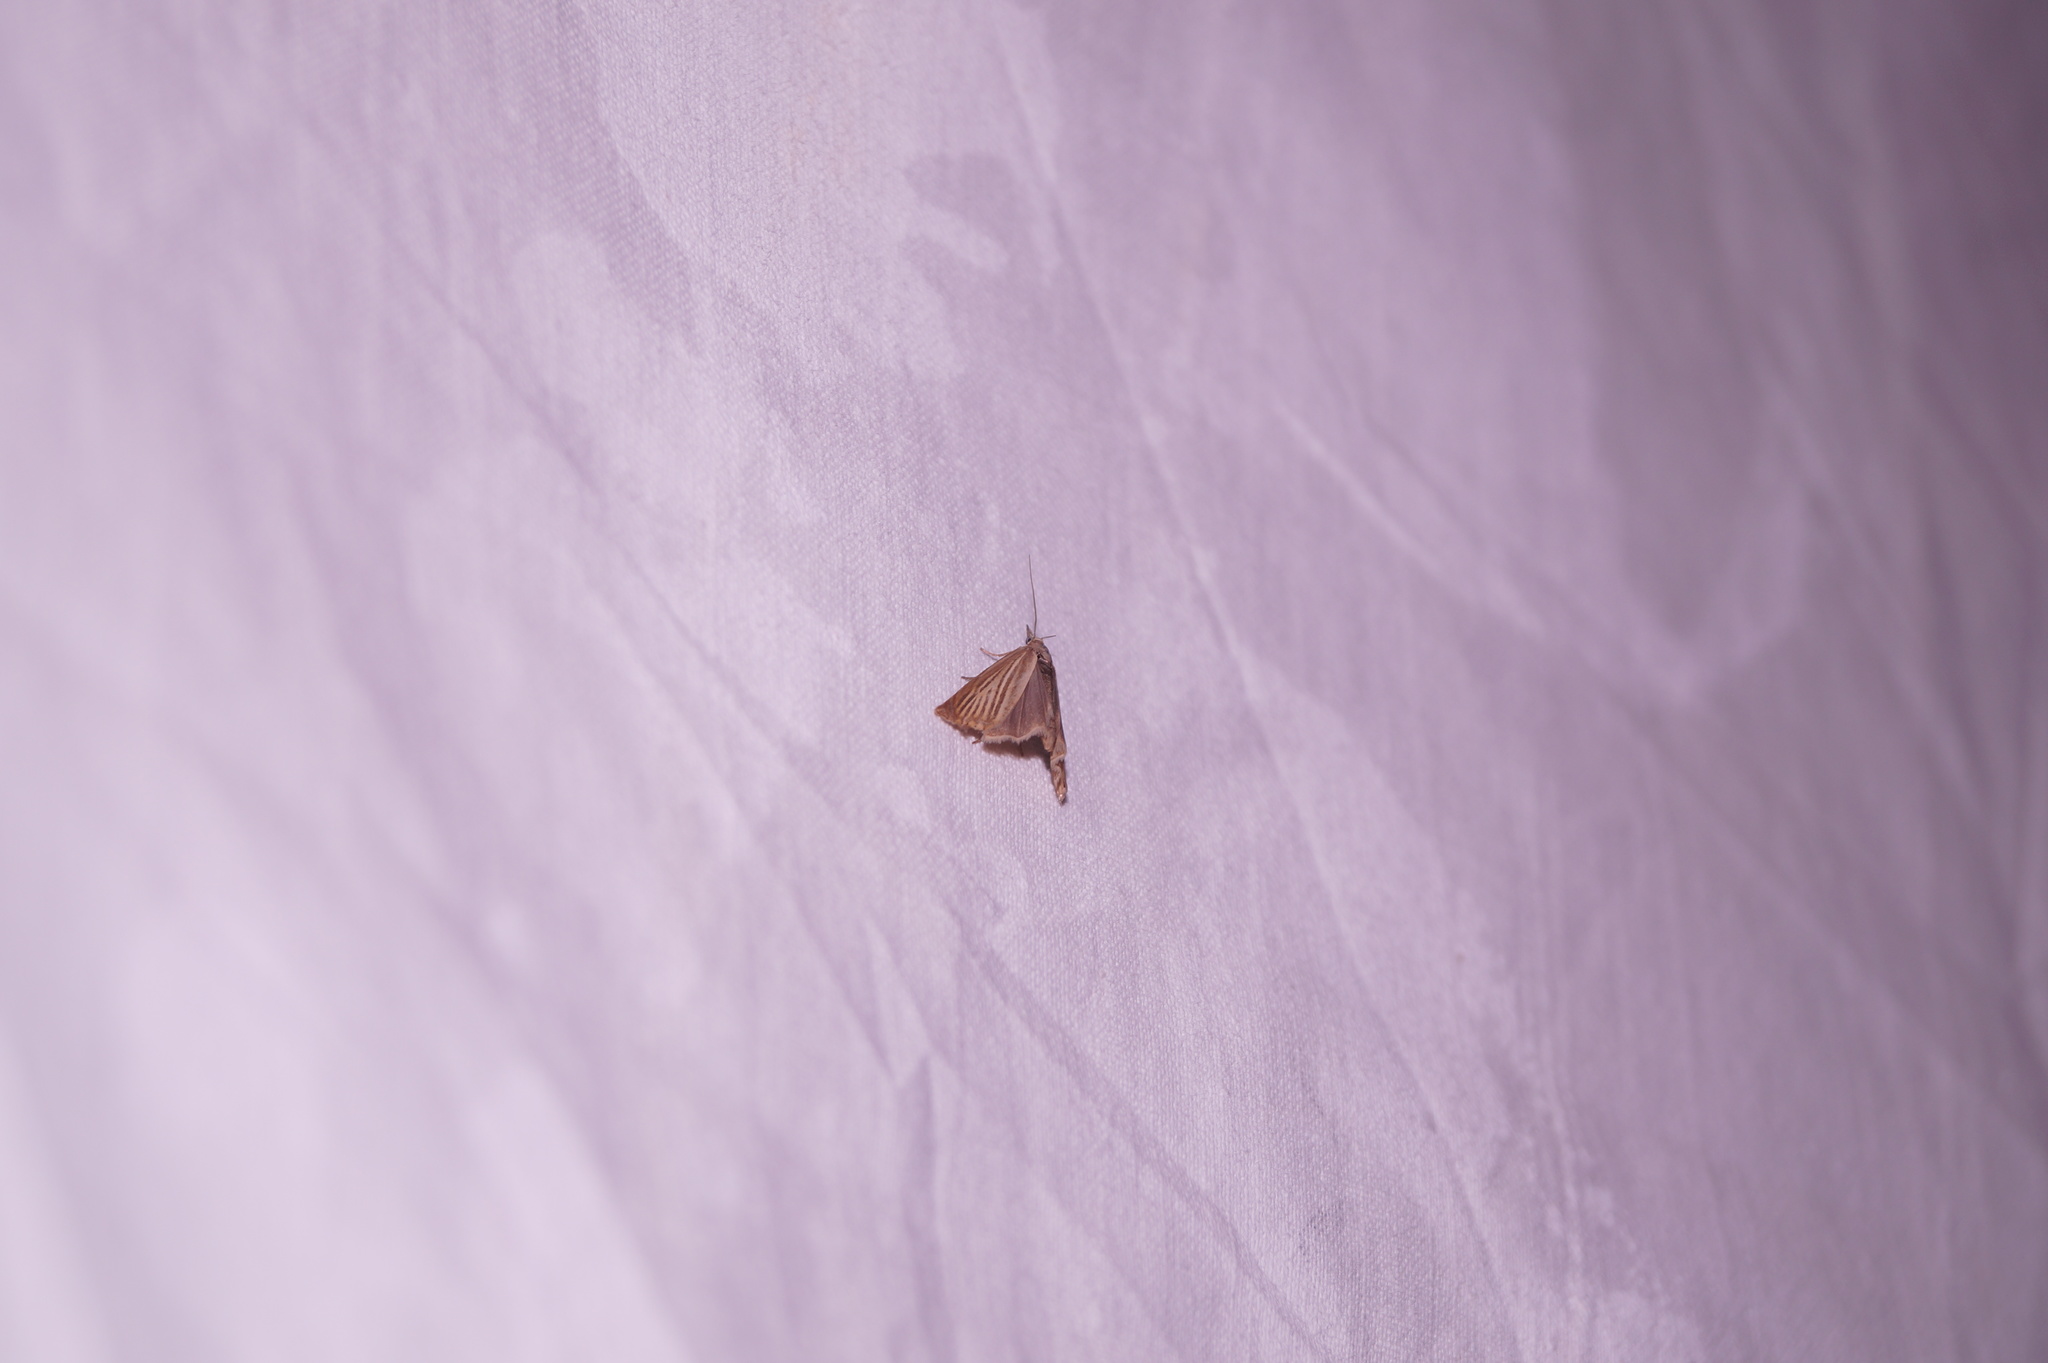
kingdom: Animalia
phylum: Arthropoda
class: Insecta
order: Lepidoptera
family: Crambidae
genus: Chrysoteuchia
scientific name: Chrysoteuchia culmella
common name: Garden grass-veneer
